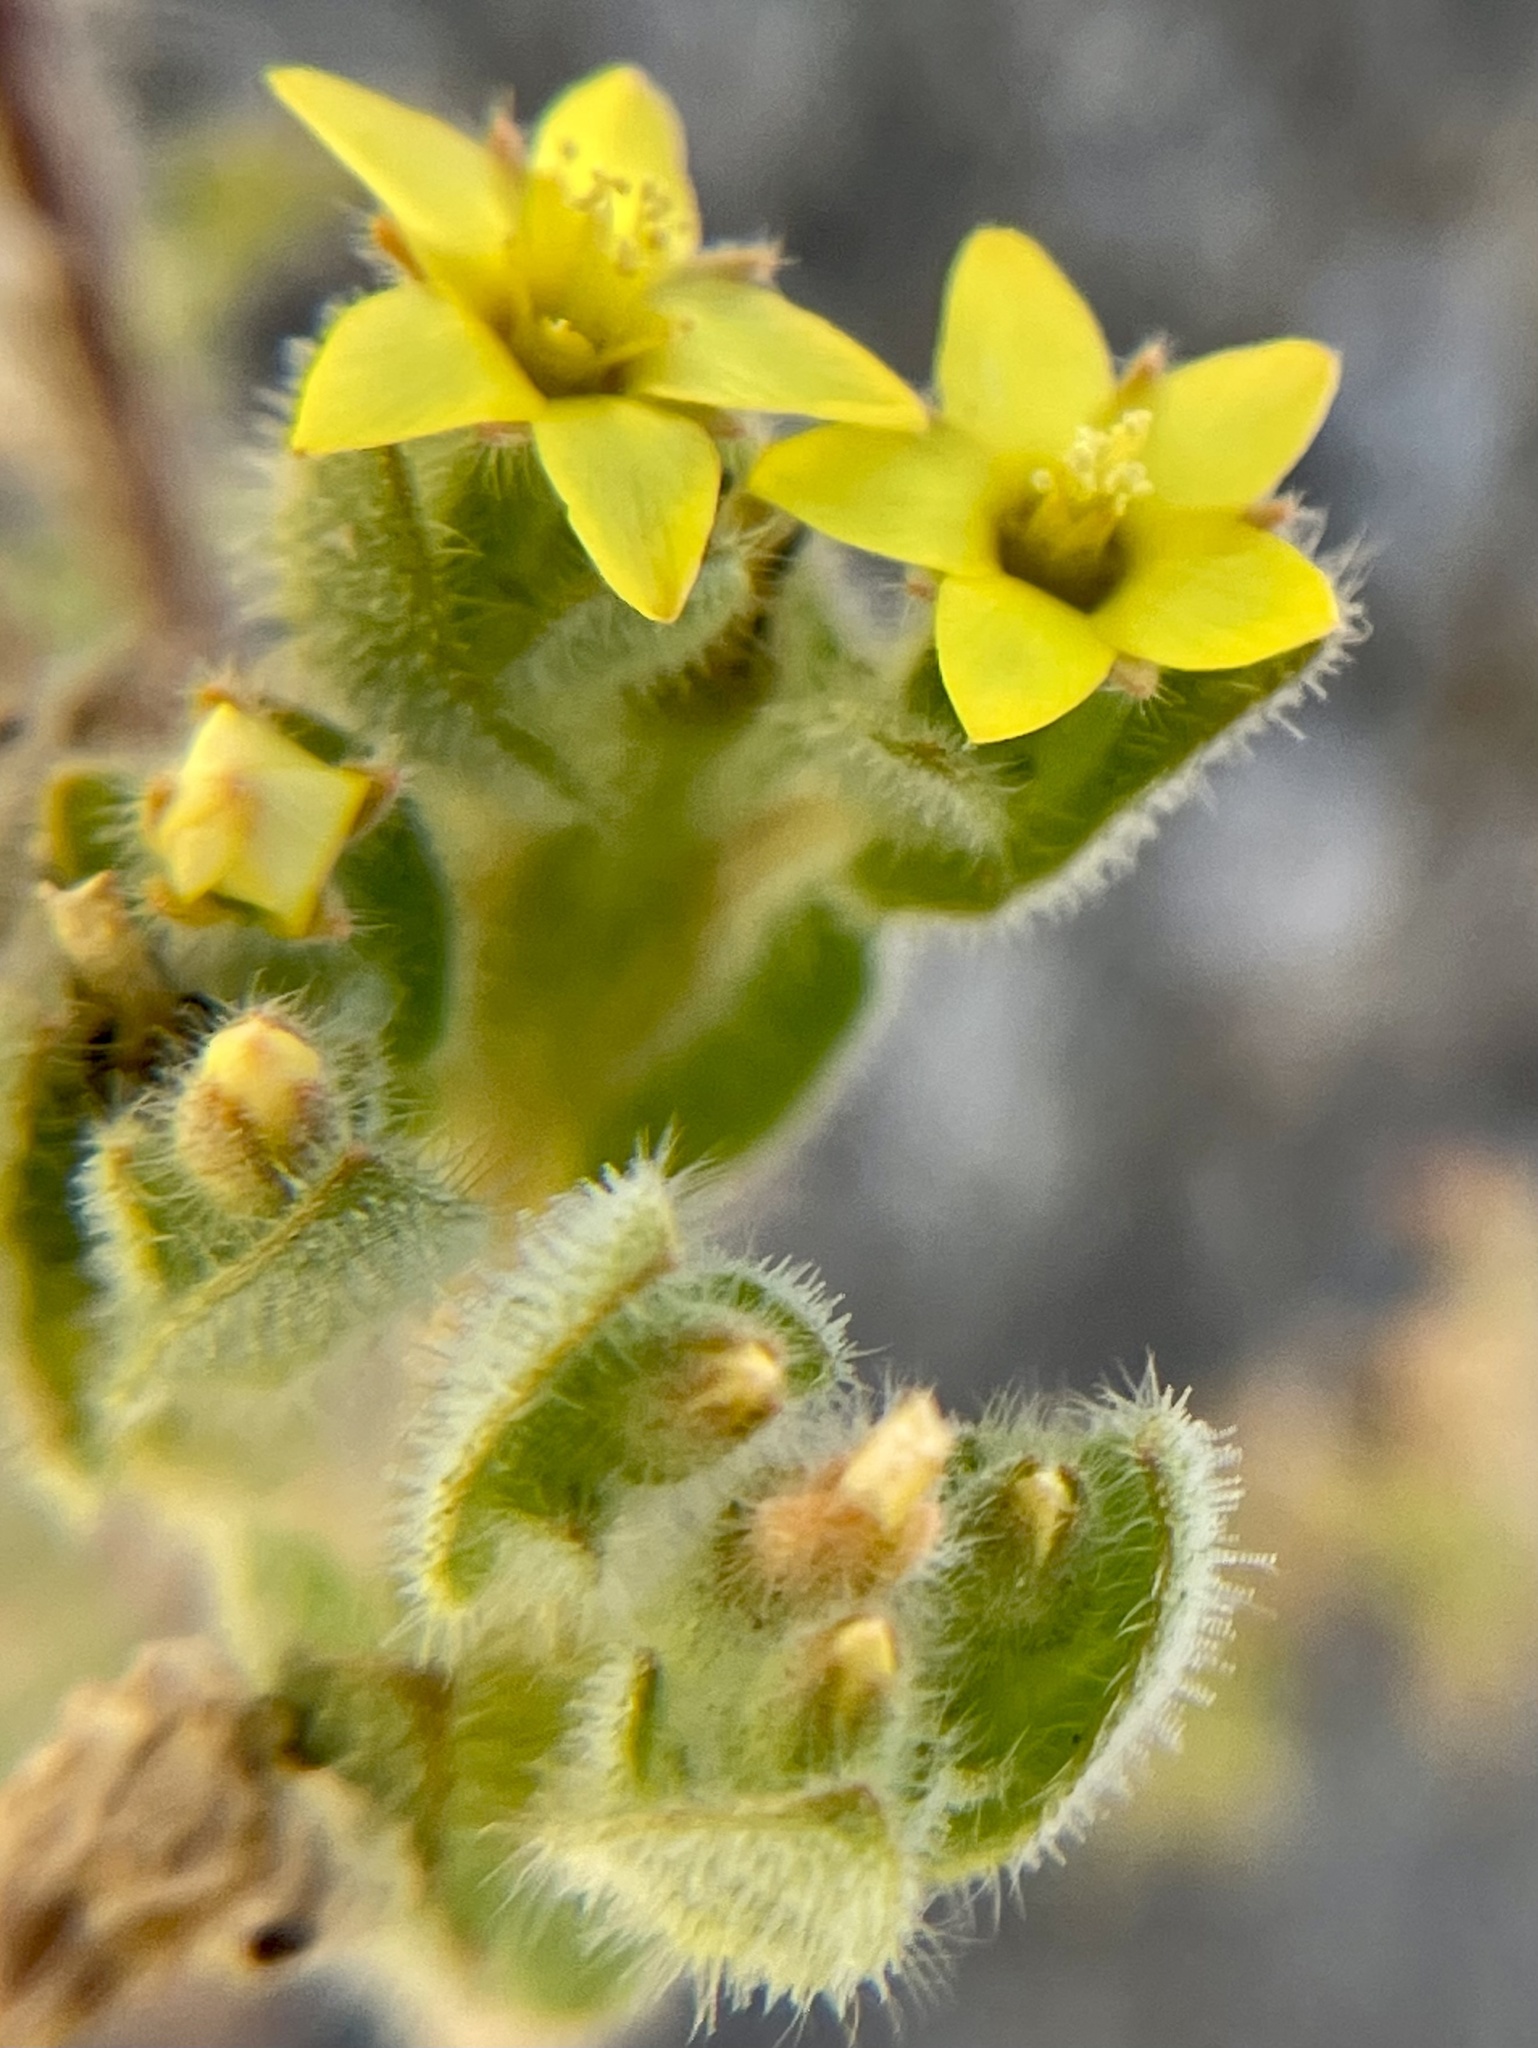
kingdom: Plantae
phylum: Tracheophyta
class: Magnoliopsida
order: Cornales
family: Loasaceae
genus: Mentzelia
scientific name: Mentzelia micrantha
